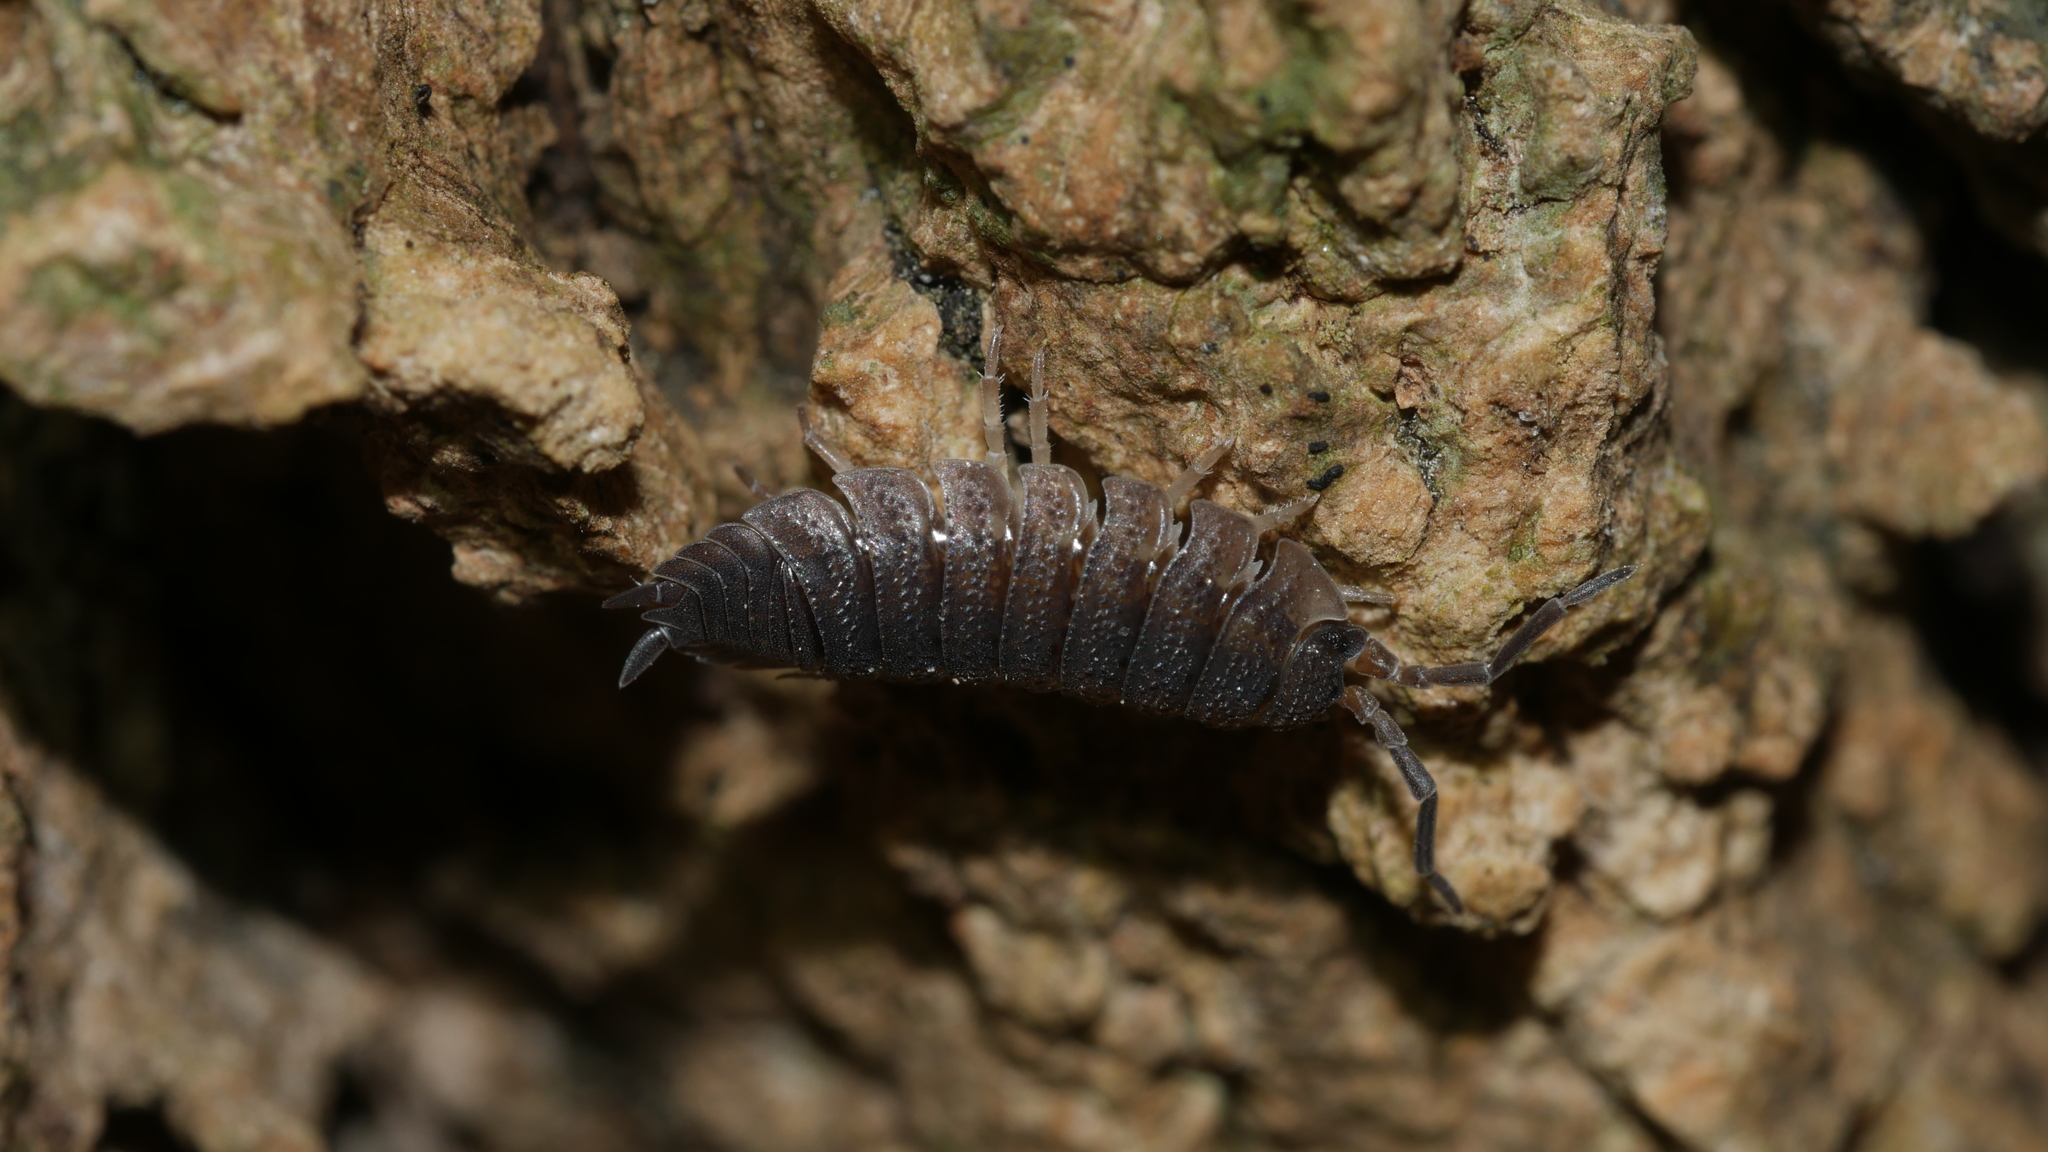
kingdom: Animalia
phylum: Arthropoda
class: Malacostraca
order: Isopoda
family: Porcellionidae
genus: Porcellio
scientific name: Porcellio scaber
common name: Common rough woodlouse
